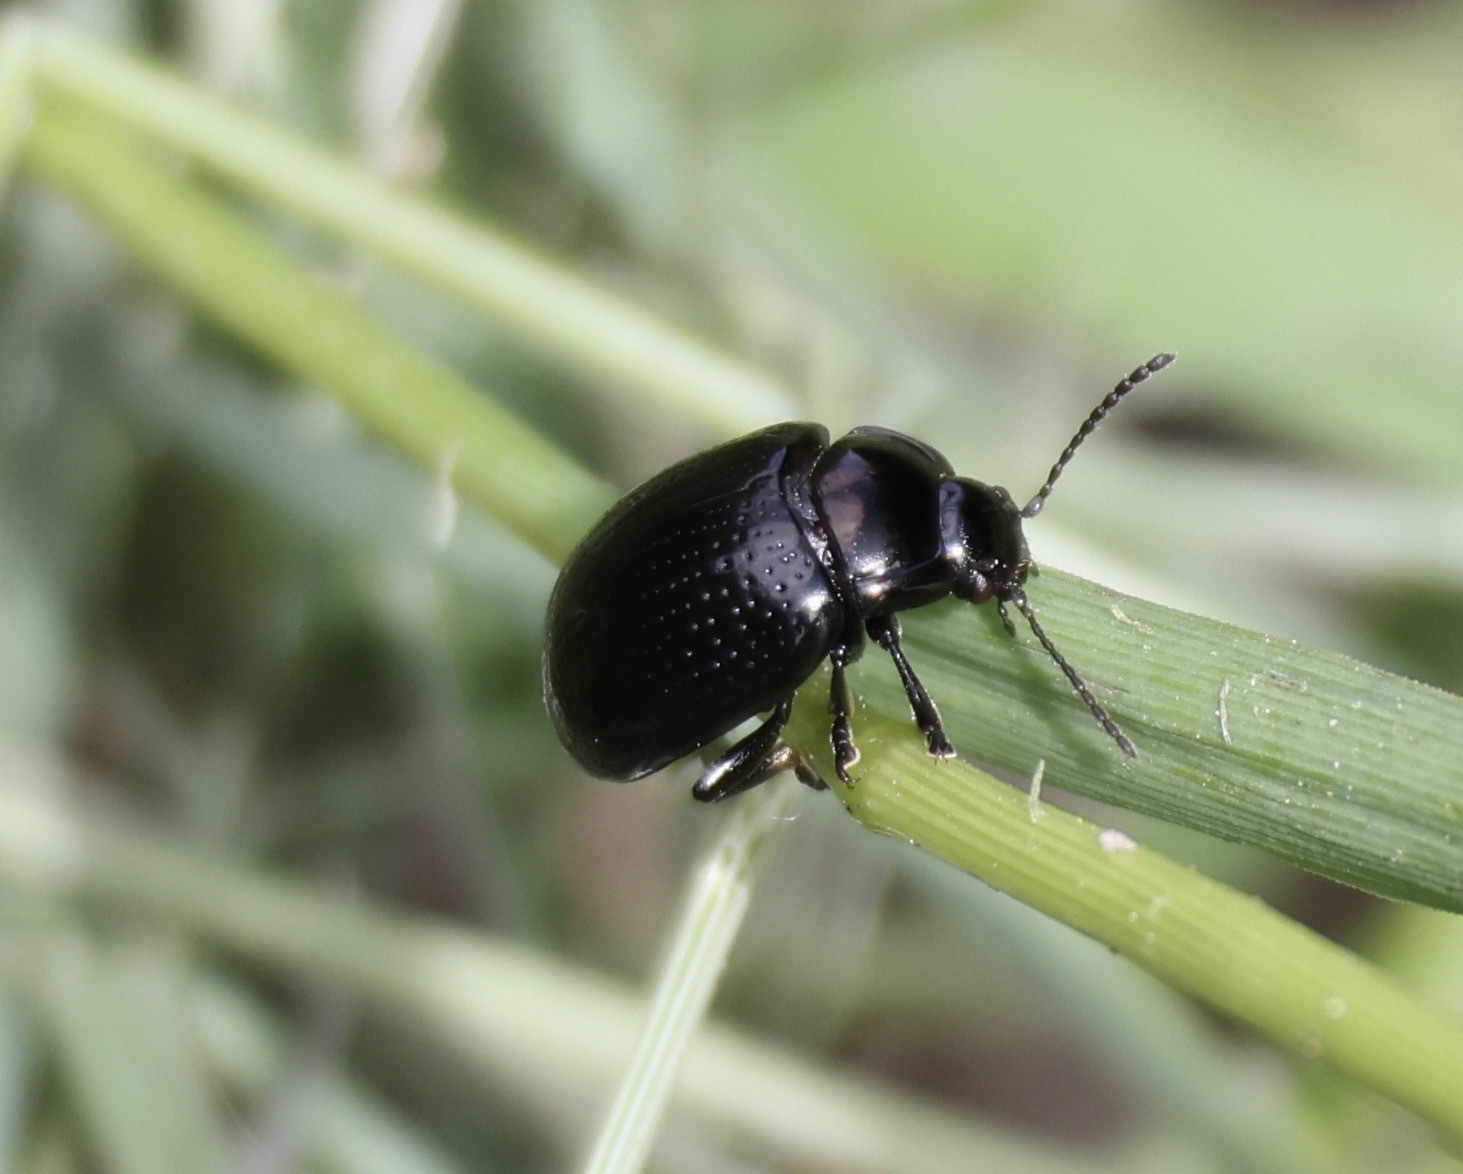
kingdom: Animalia
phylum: Arthropoda
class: Insecta
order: Coleoptera
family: Chrysomelidae
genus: Chrysolina
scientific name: Chrysolina oricalcia
